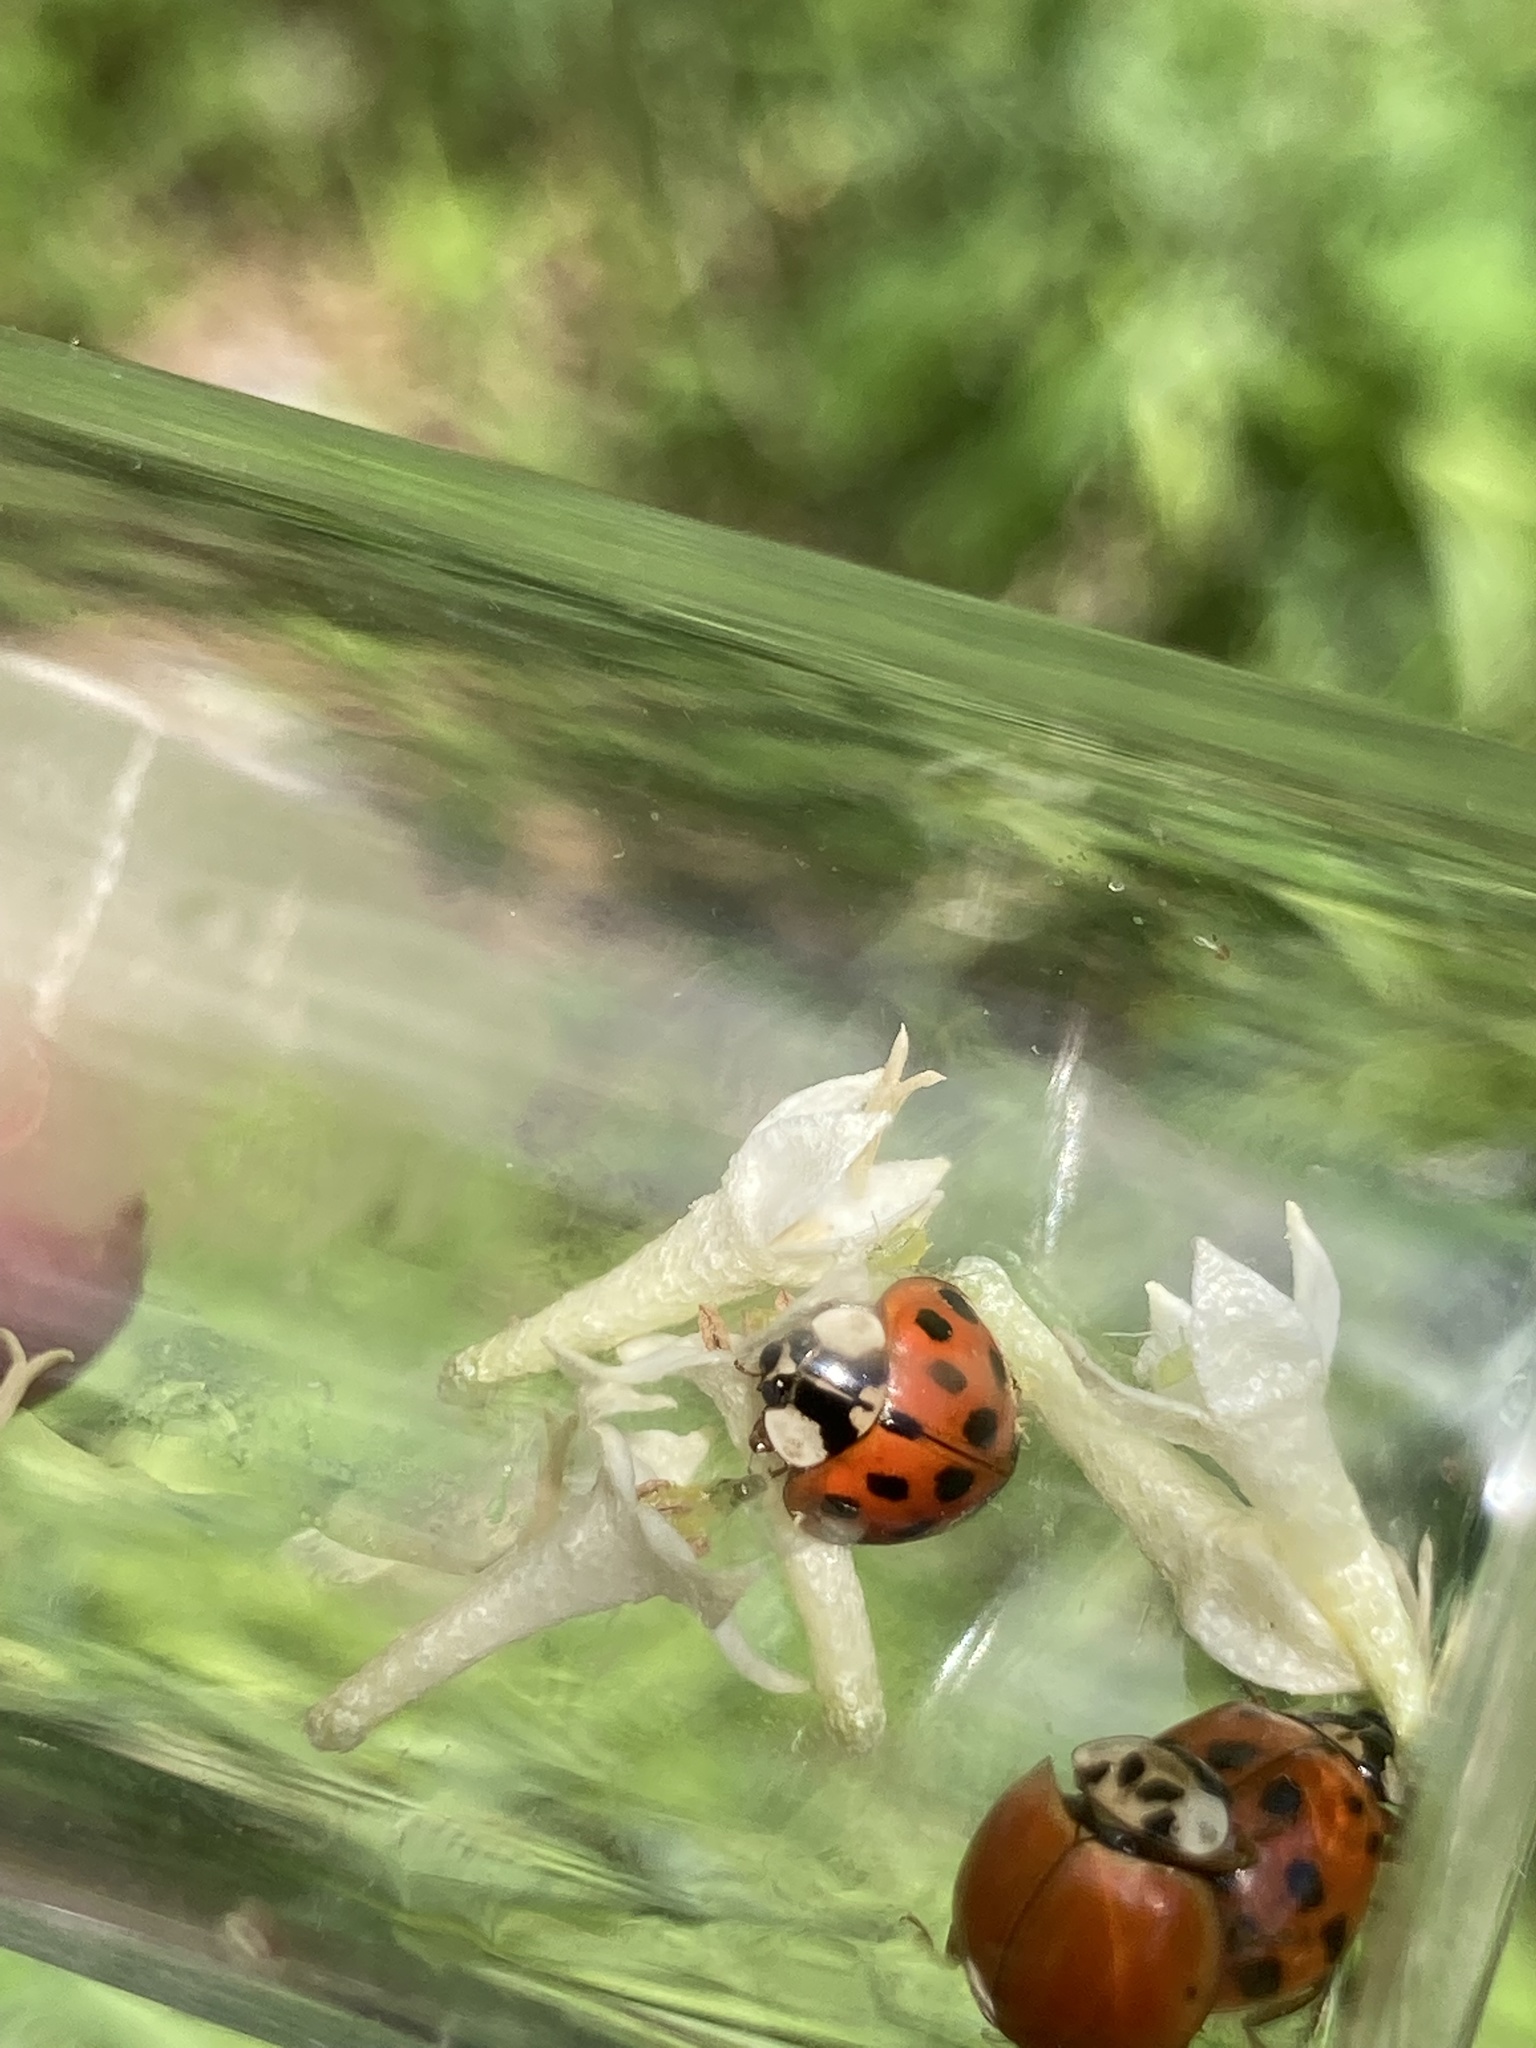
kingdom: Animalia
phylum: Arthropoda
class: Insecta
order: Coleoptera
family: Coccinellidae
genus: Harmonia
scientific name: Harmonia axyridis
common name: Harlequin ladybird
